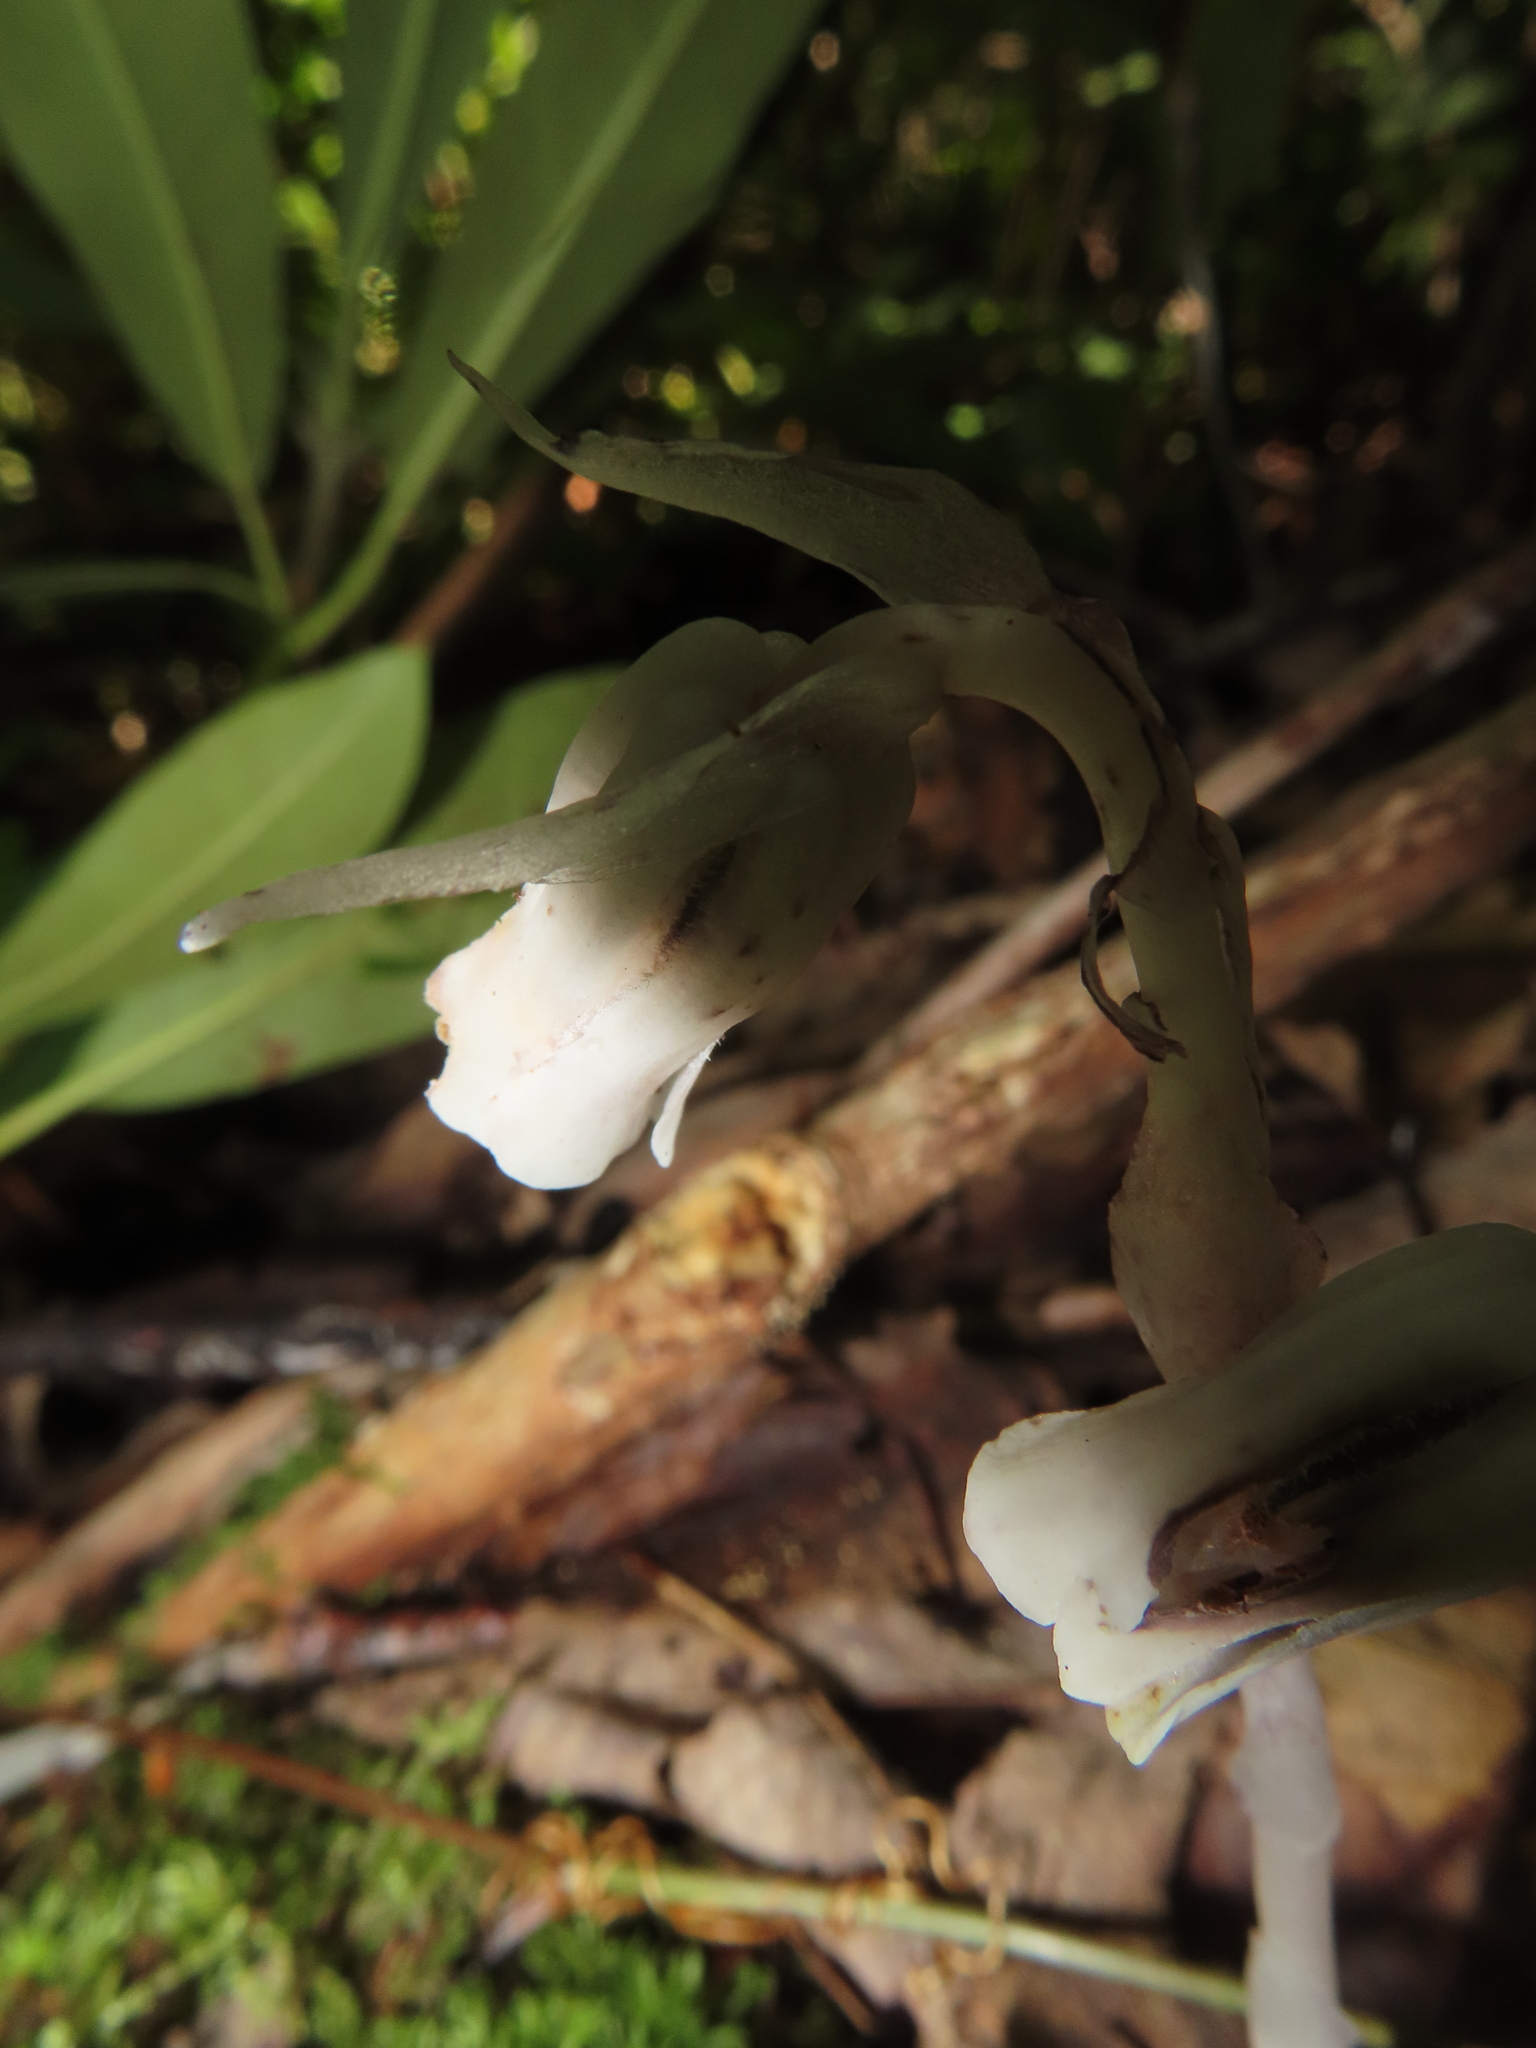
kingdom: Plantae
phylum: Tracheophyta
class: Magnoliopsida
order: Ericales
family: Ericaceae
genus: Monotropa
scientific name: Monotropa uniflora
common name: Convulsion root
